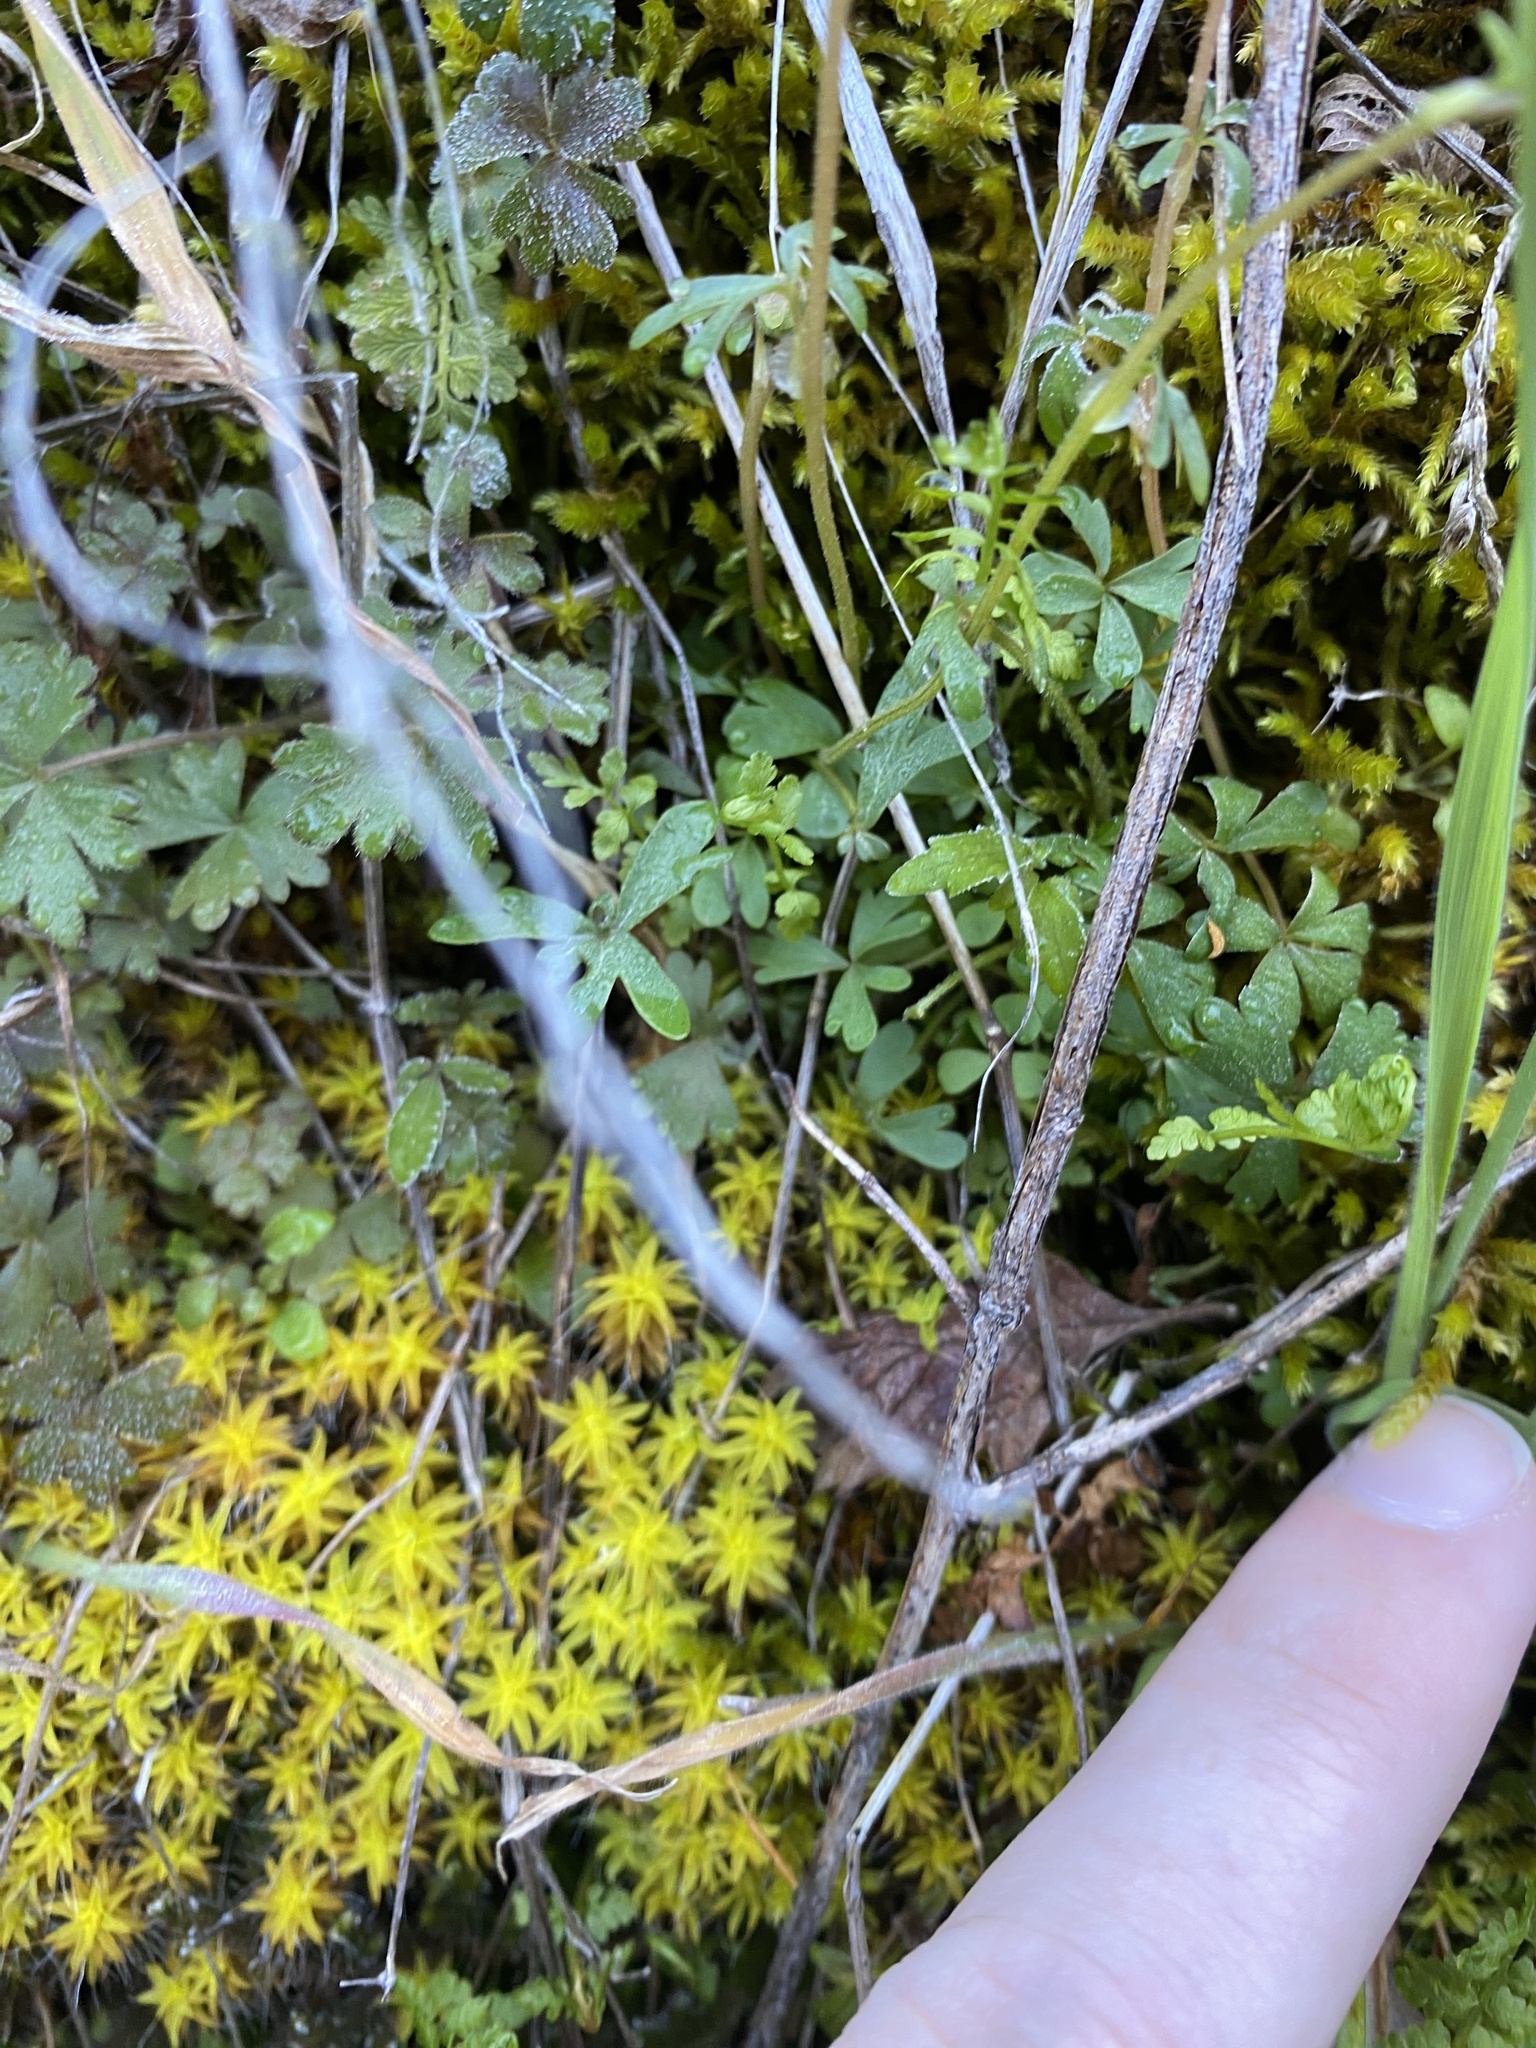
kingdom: Plantae
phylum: Tracheophyta
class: Magnoliopsida
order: Saxifragales
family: Saxifragaceae
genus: Lithophragma
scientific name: Lithophragma tenella
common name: Slender fringe-cup
